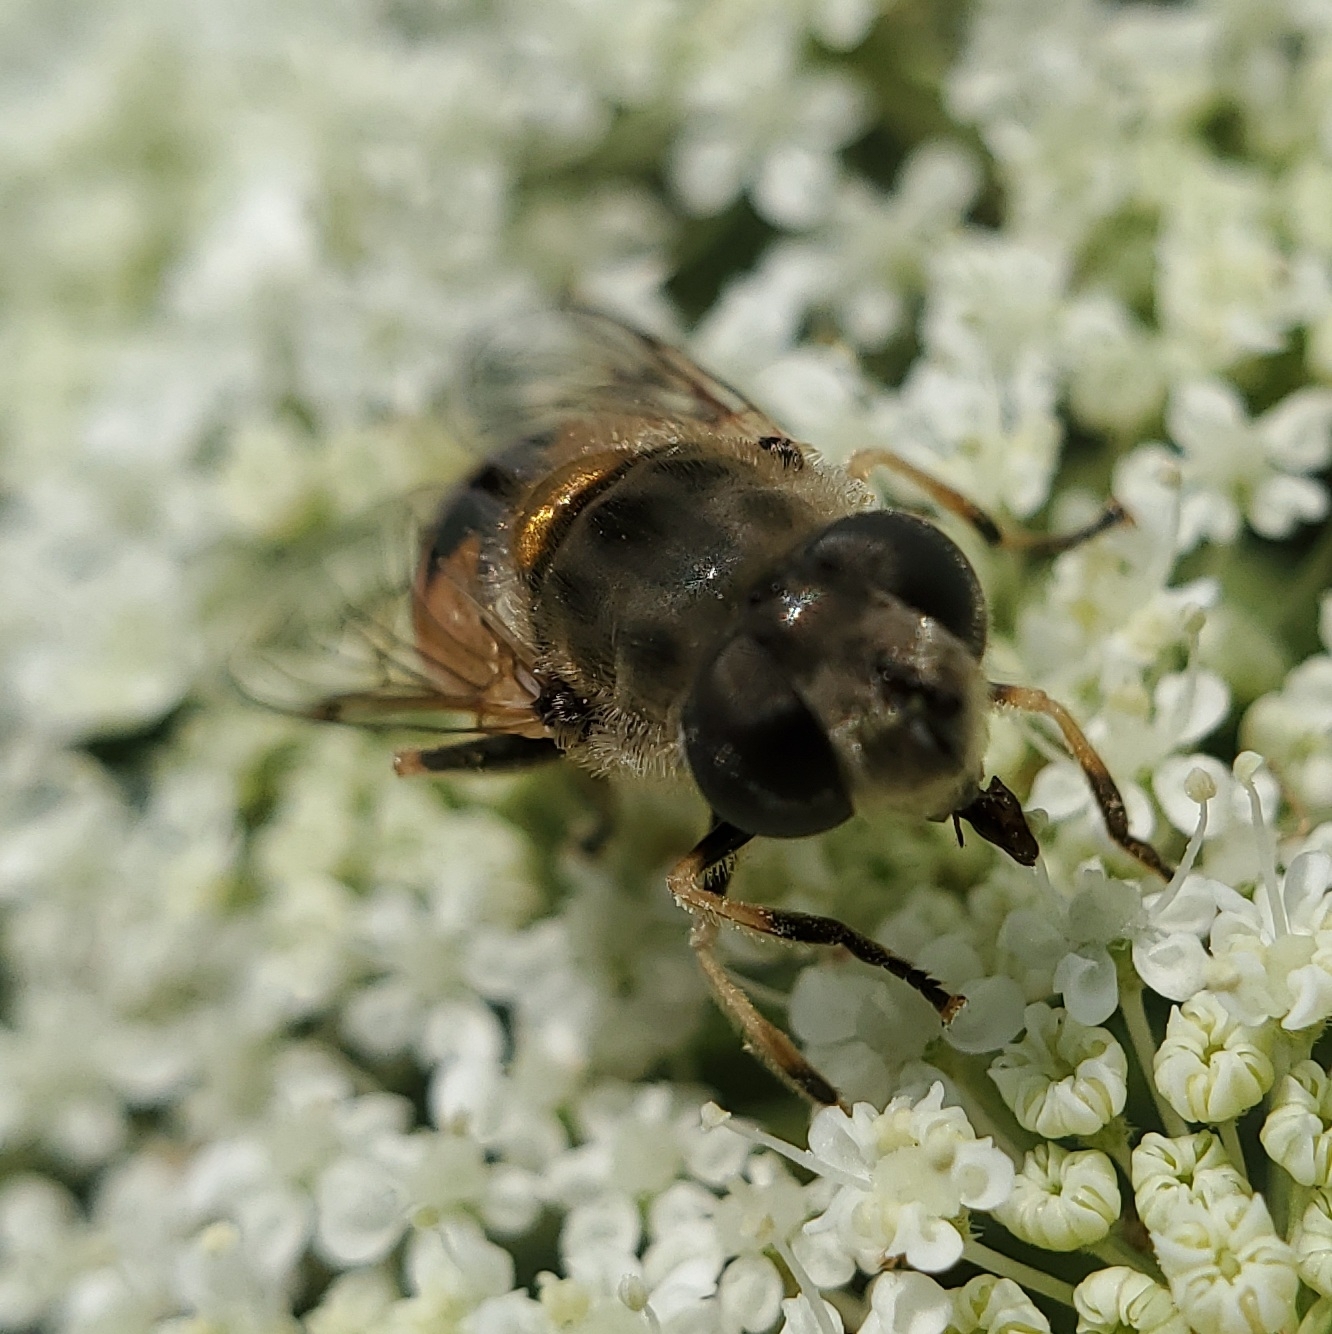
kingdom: Animalia
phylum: Arthropoda
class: Insecta
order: Diptera
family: Syrphidae
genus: Eristalis
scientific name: Eristalis arbustorum
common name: Hover fly
